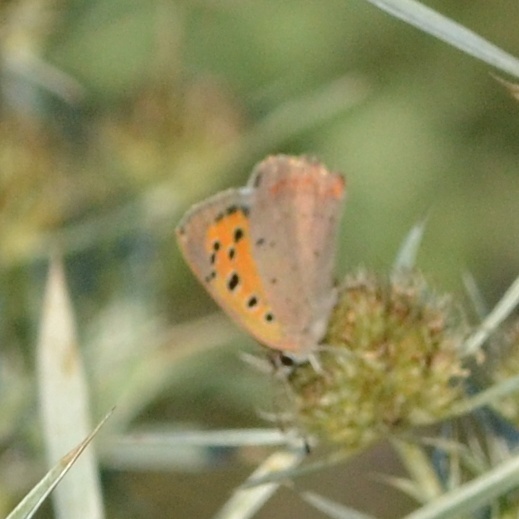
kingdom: Animalia
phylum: Arthropoda
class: Insecta
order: Lepidoptera
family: Lycaenidae
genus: Lycaena
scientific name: Lycaena phlaeas
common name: Small copper
